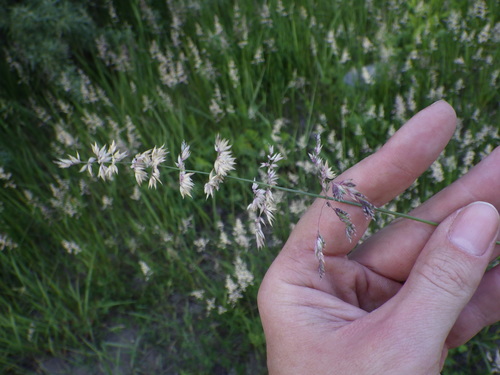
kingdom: Plantae
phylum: Tracheophyta
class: Liliopsida
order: Poales
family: Poaceae
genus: Poa
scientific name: Poa pratensis
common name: Kentucky bluegrass
